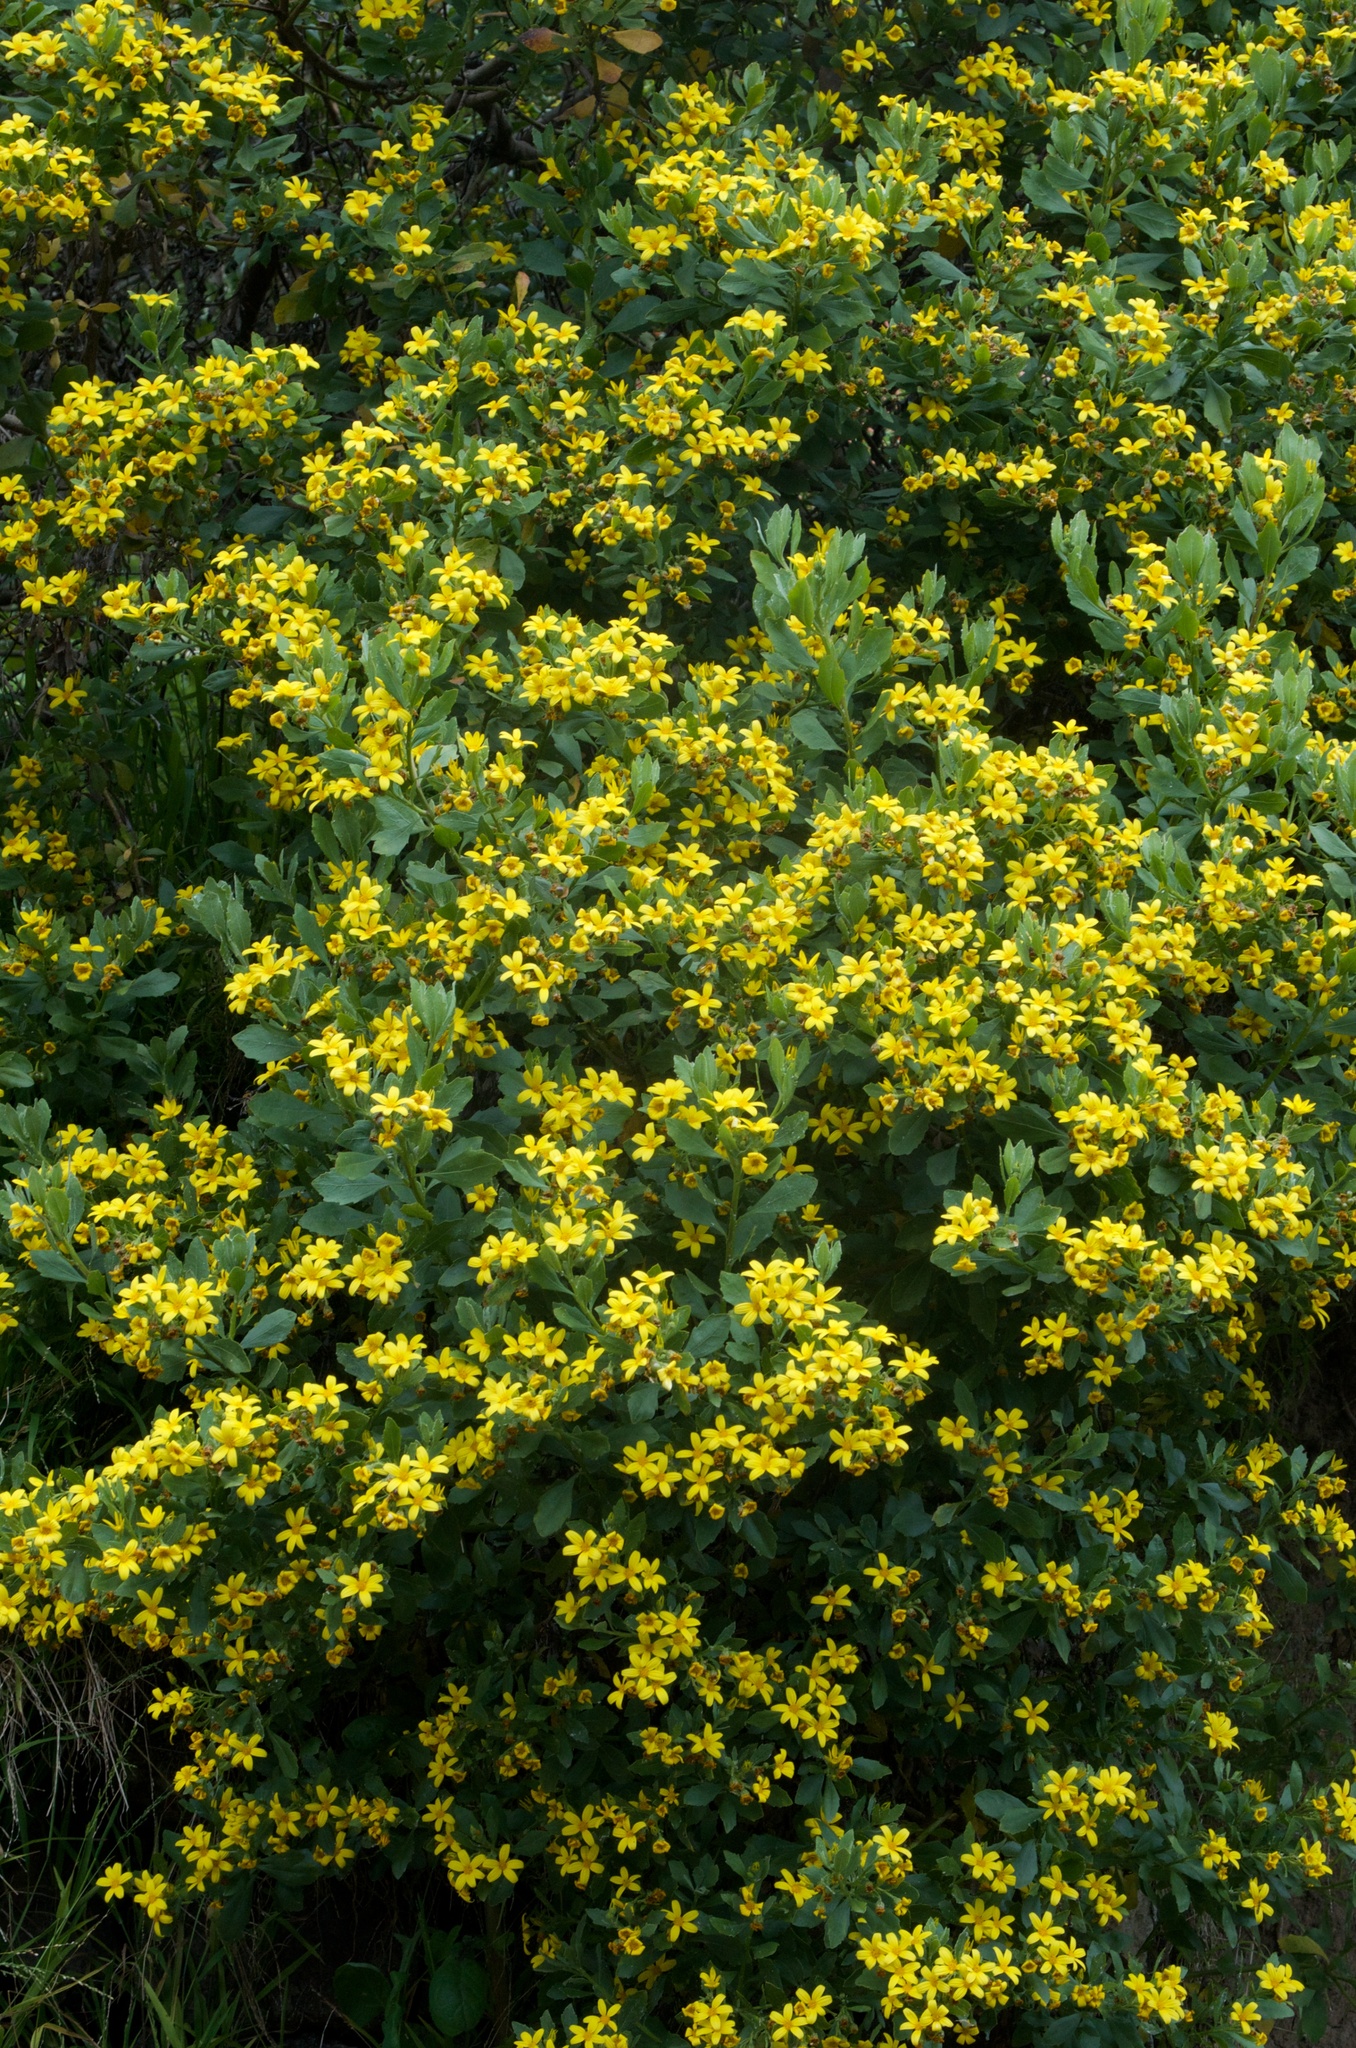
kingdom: Plantae
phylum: Tracheophyta
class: Magnoliopsida
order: Asterales
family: Asteraceae
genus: Osteospermum
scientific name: Osteospermum moniliferum
